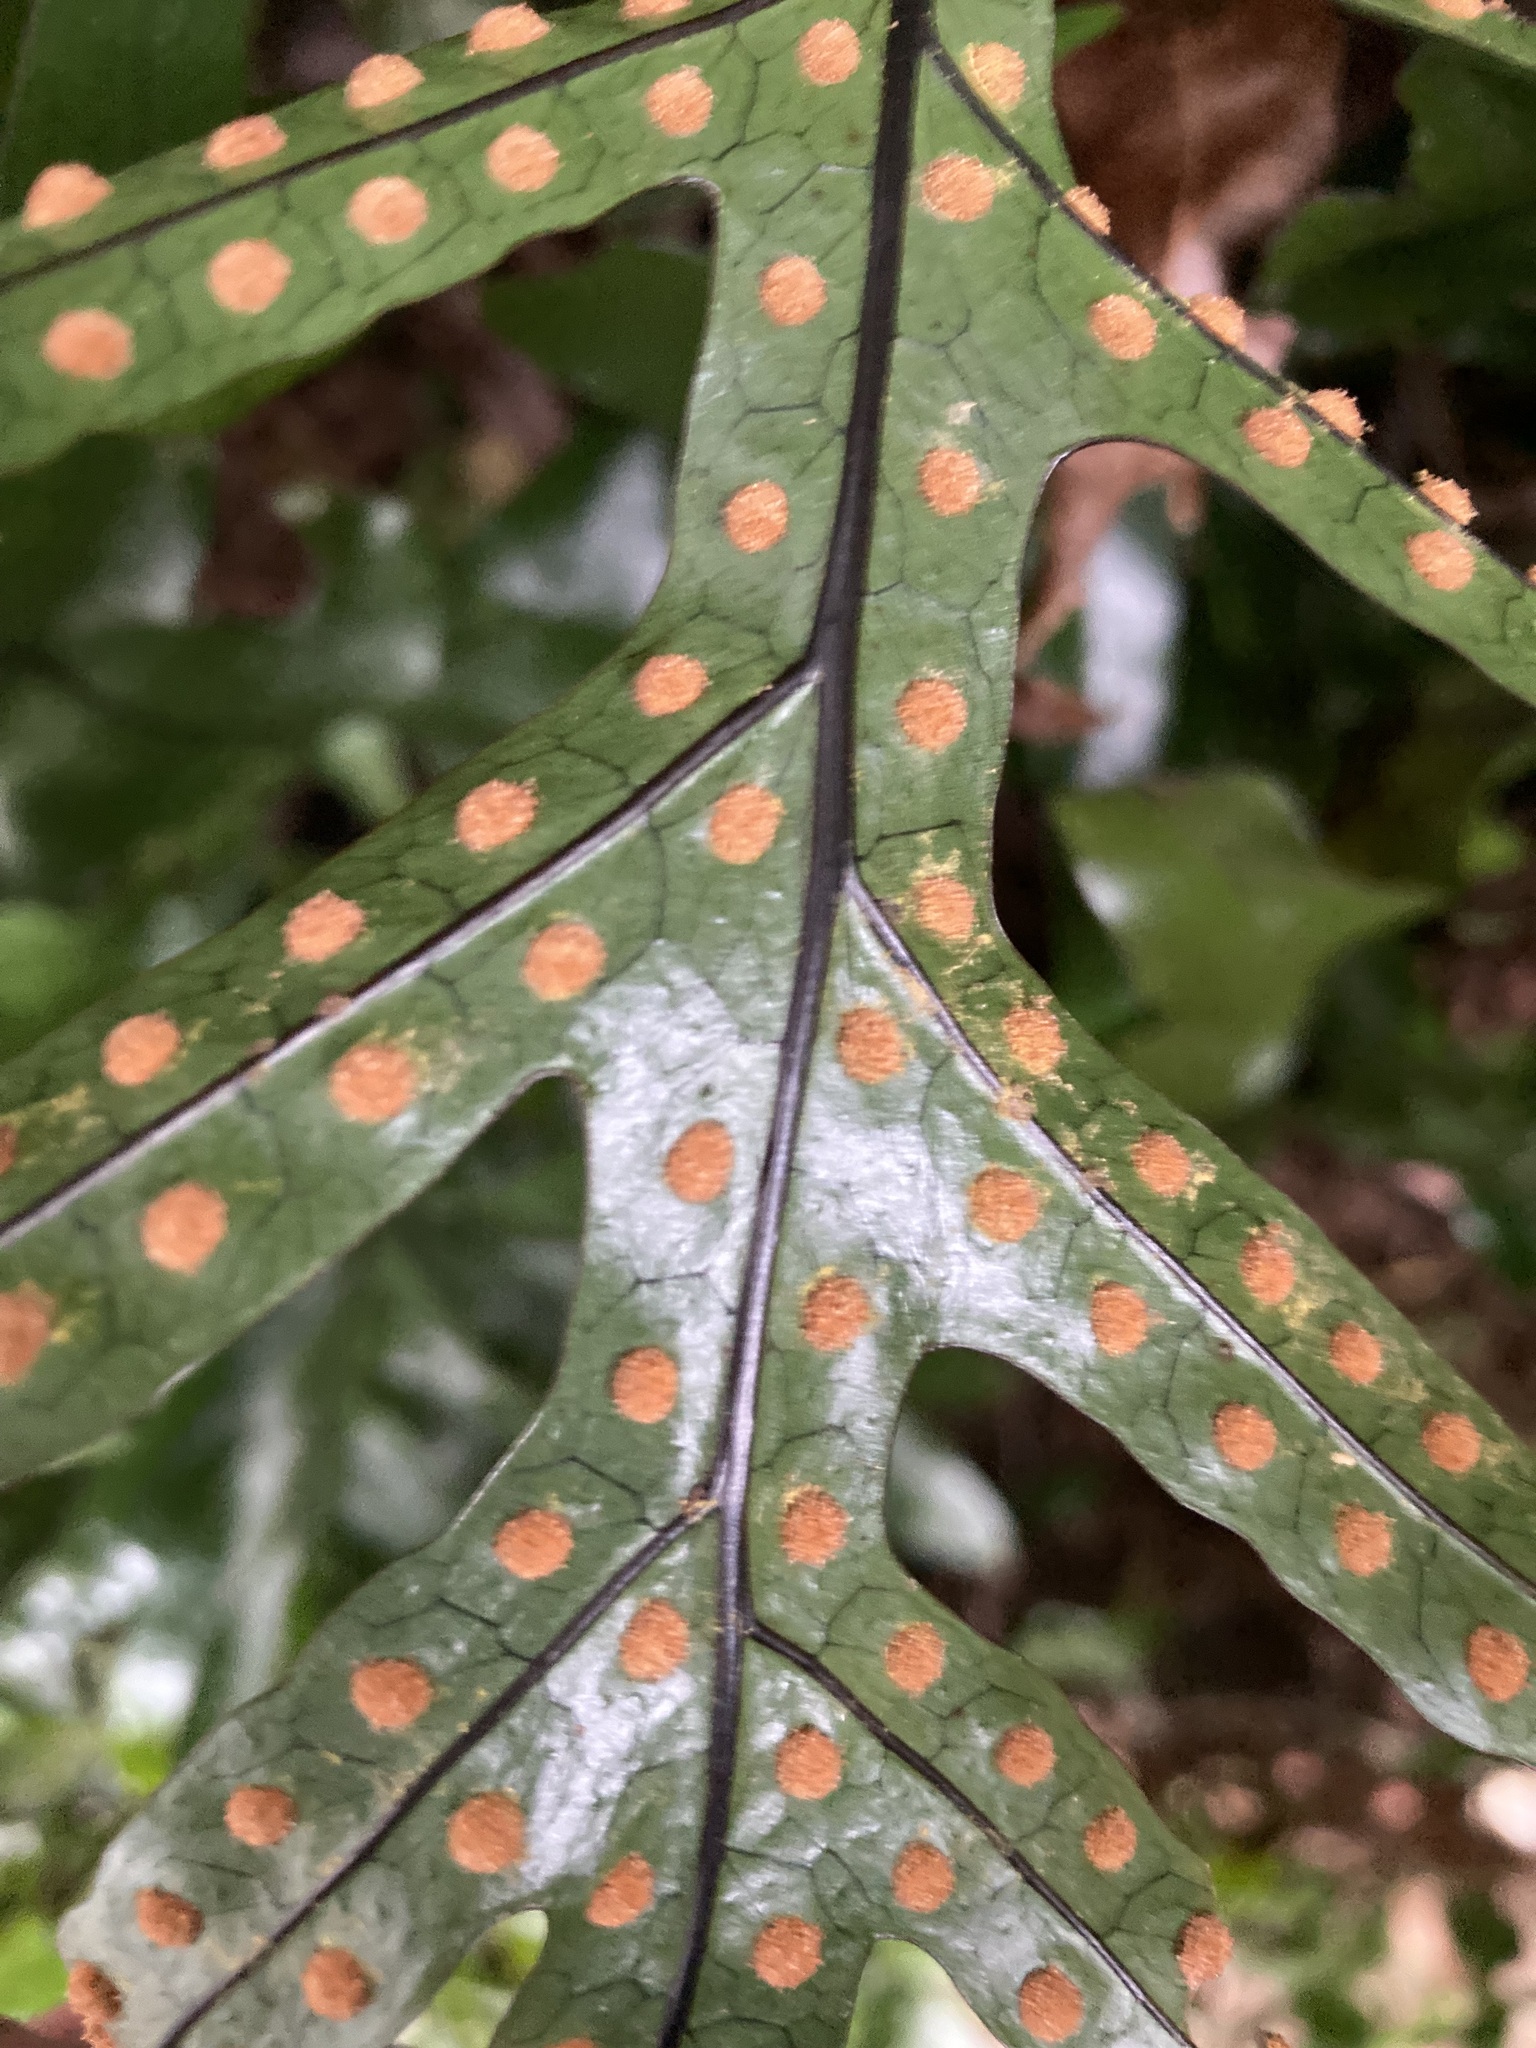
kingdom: Plantae
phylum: Tracheophyta
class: Polypodiopsida
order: Polypodiales
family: Polypodiaceae
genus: Lecanopteris
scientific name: Lecanopteris pustulata
